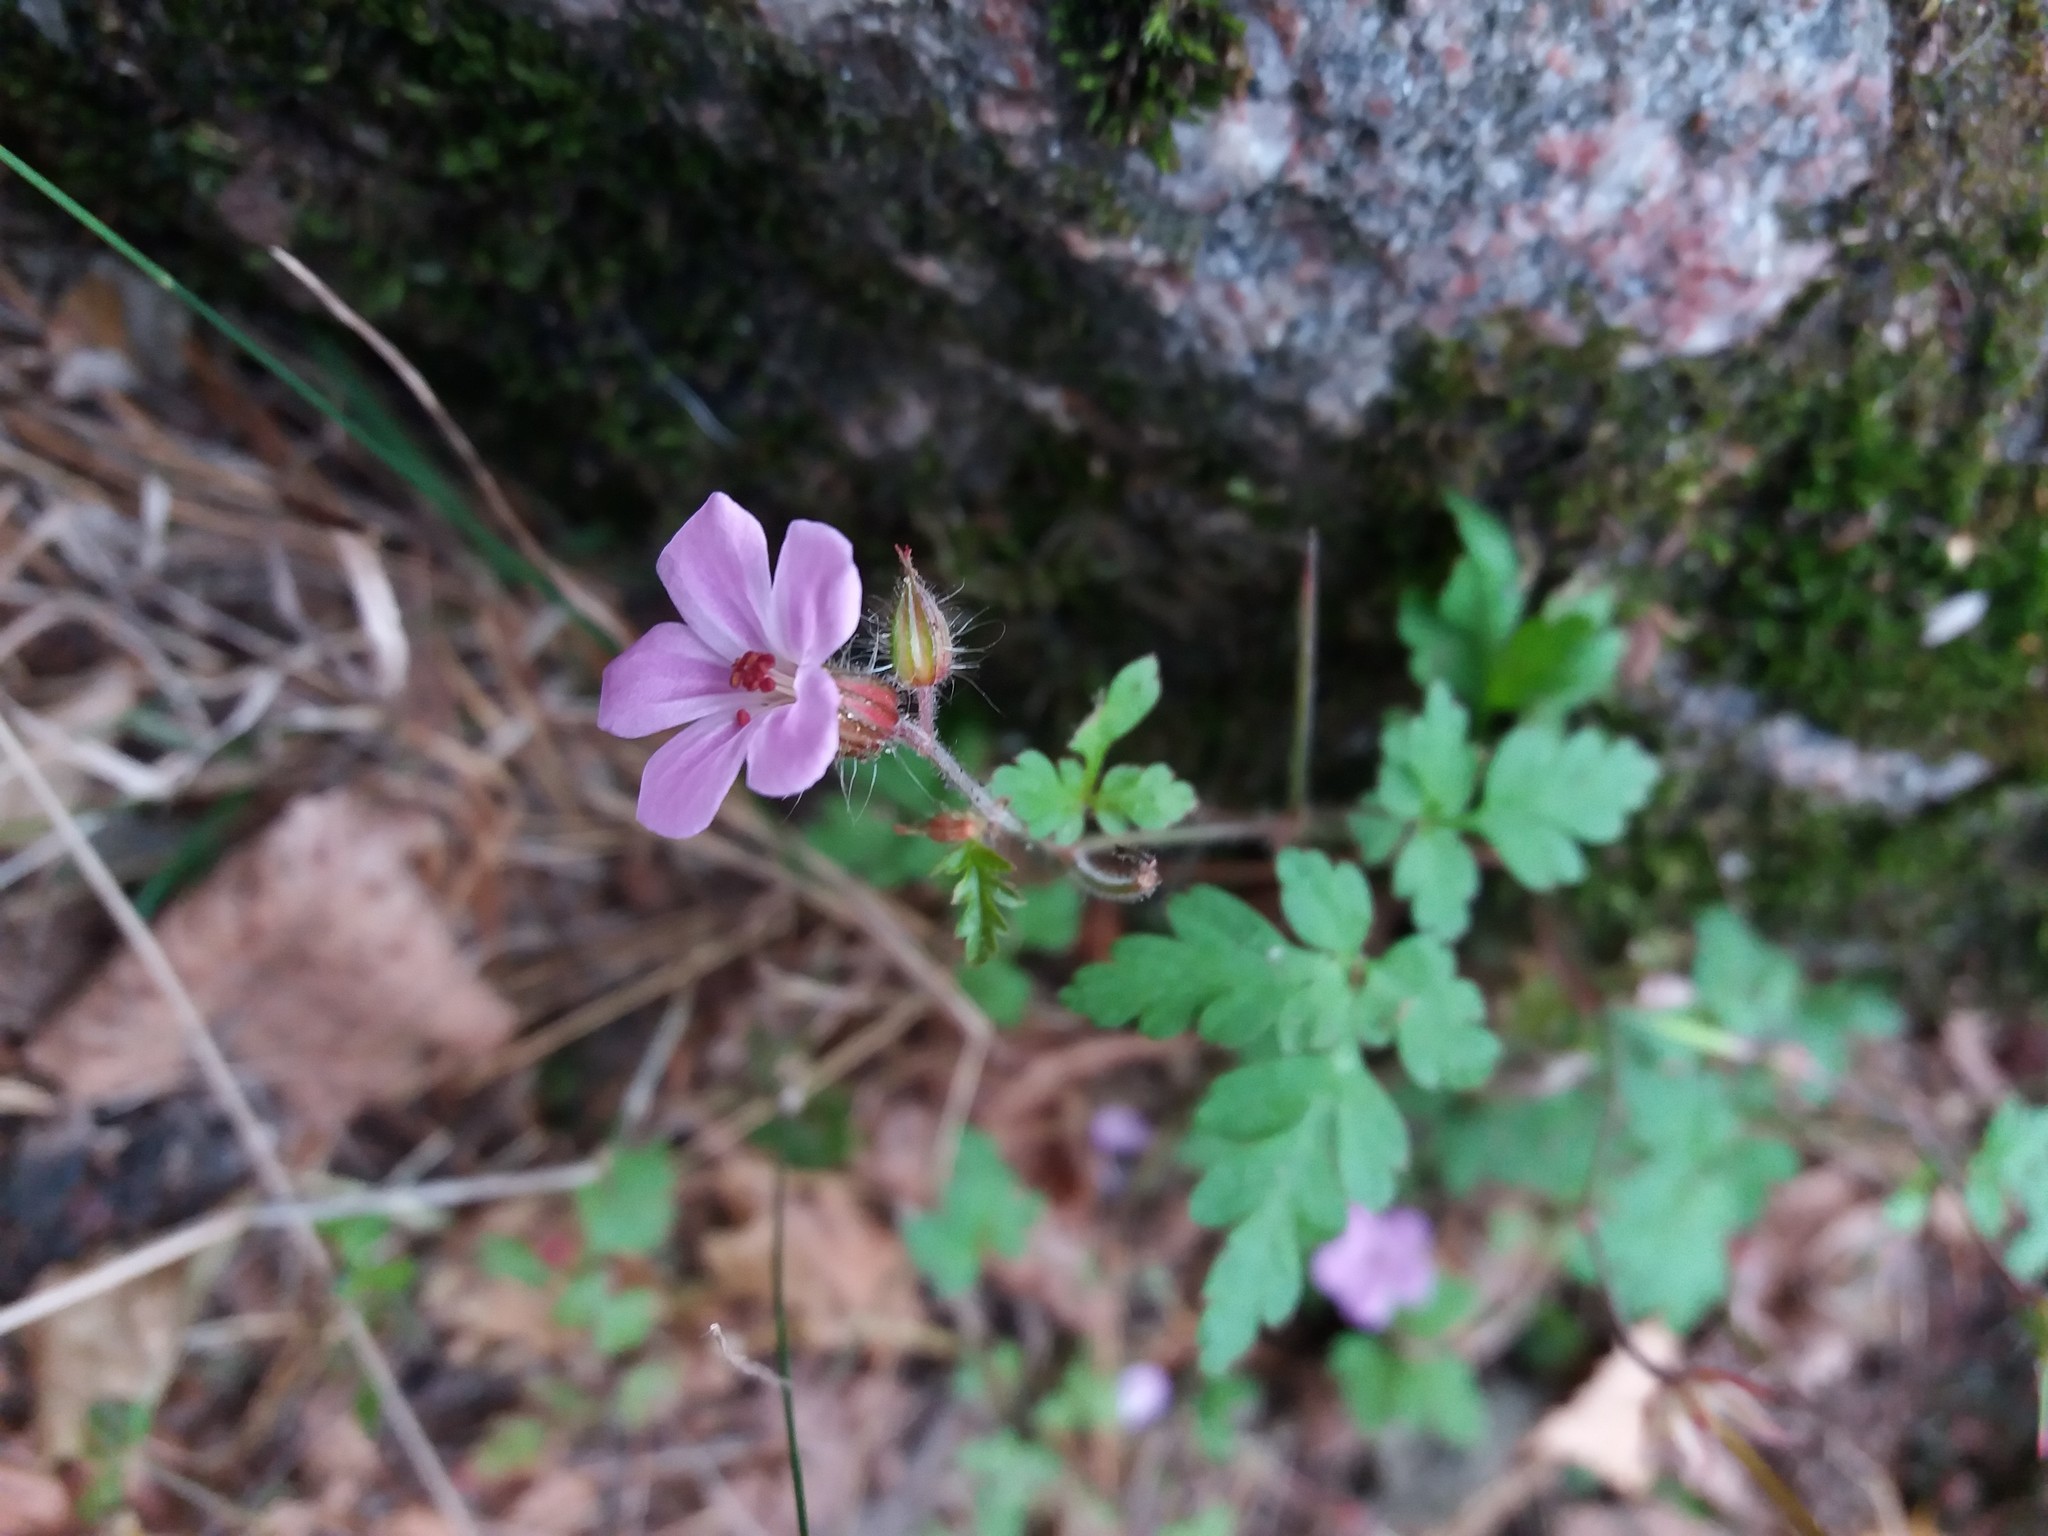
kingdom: Plantae
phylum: Tracheophyta
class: Magnoliopsida
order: Geraniales
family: Geraniaceae
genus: Geranium
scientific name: Geranium robertianum
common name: Herb-robert
